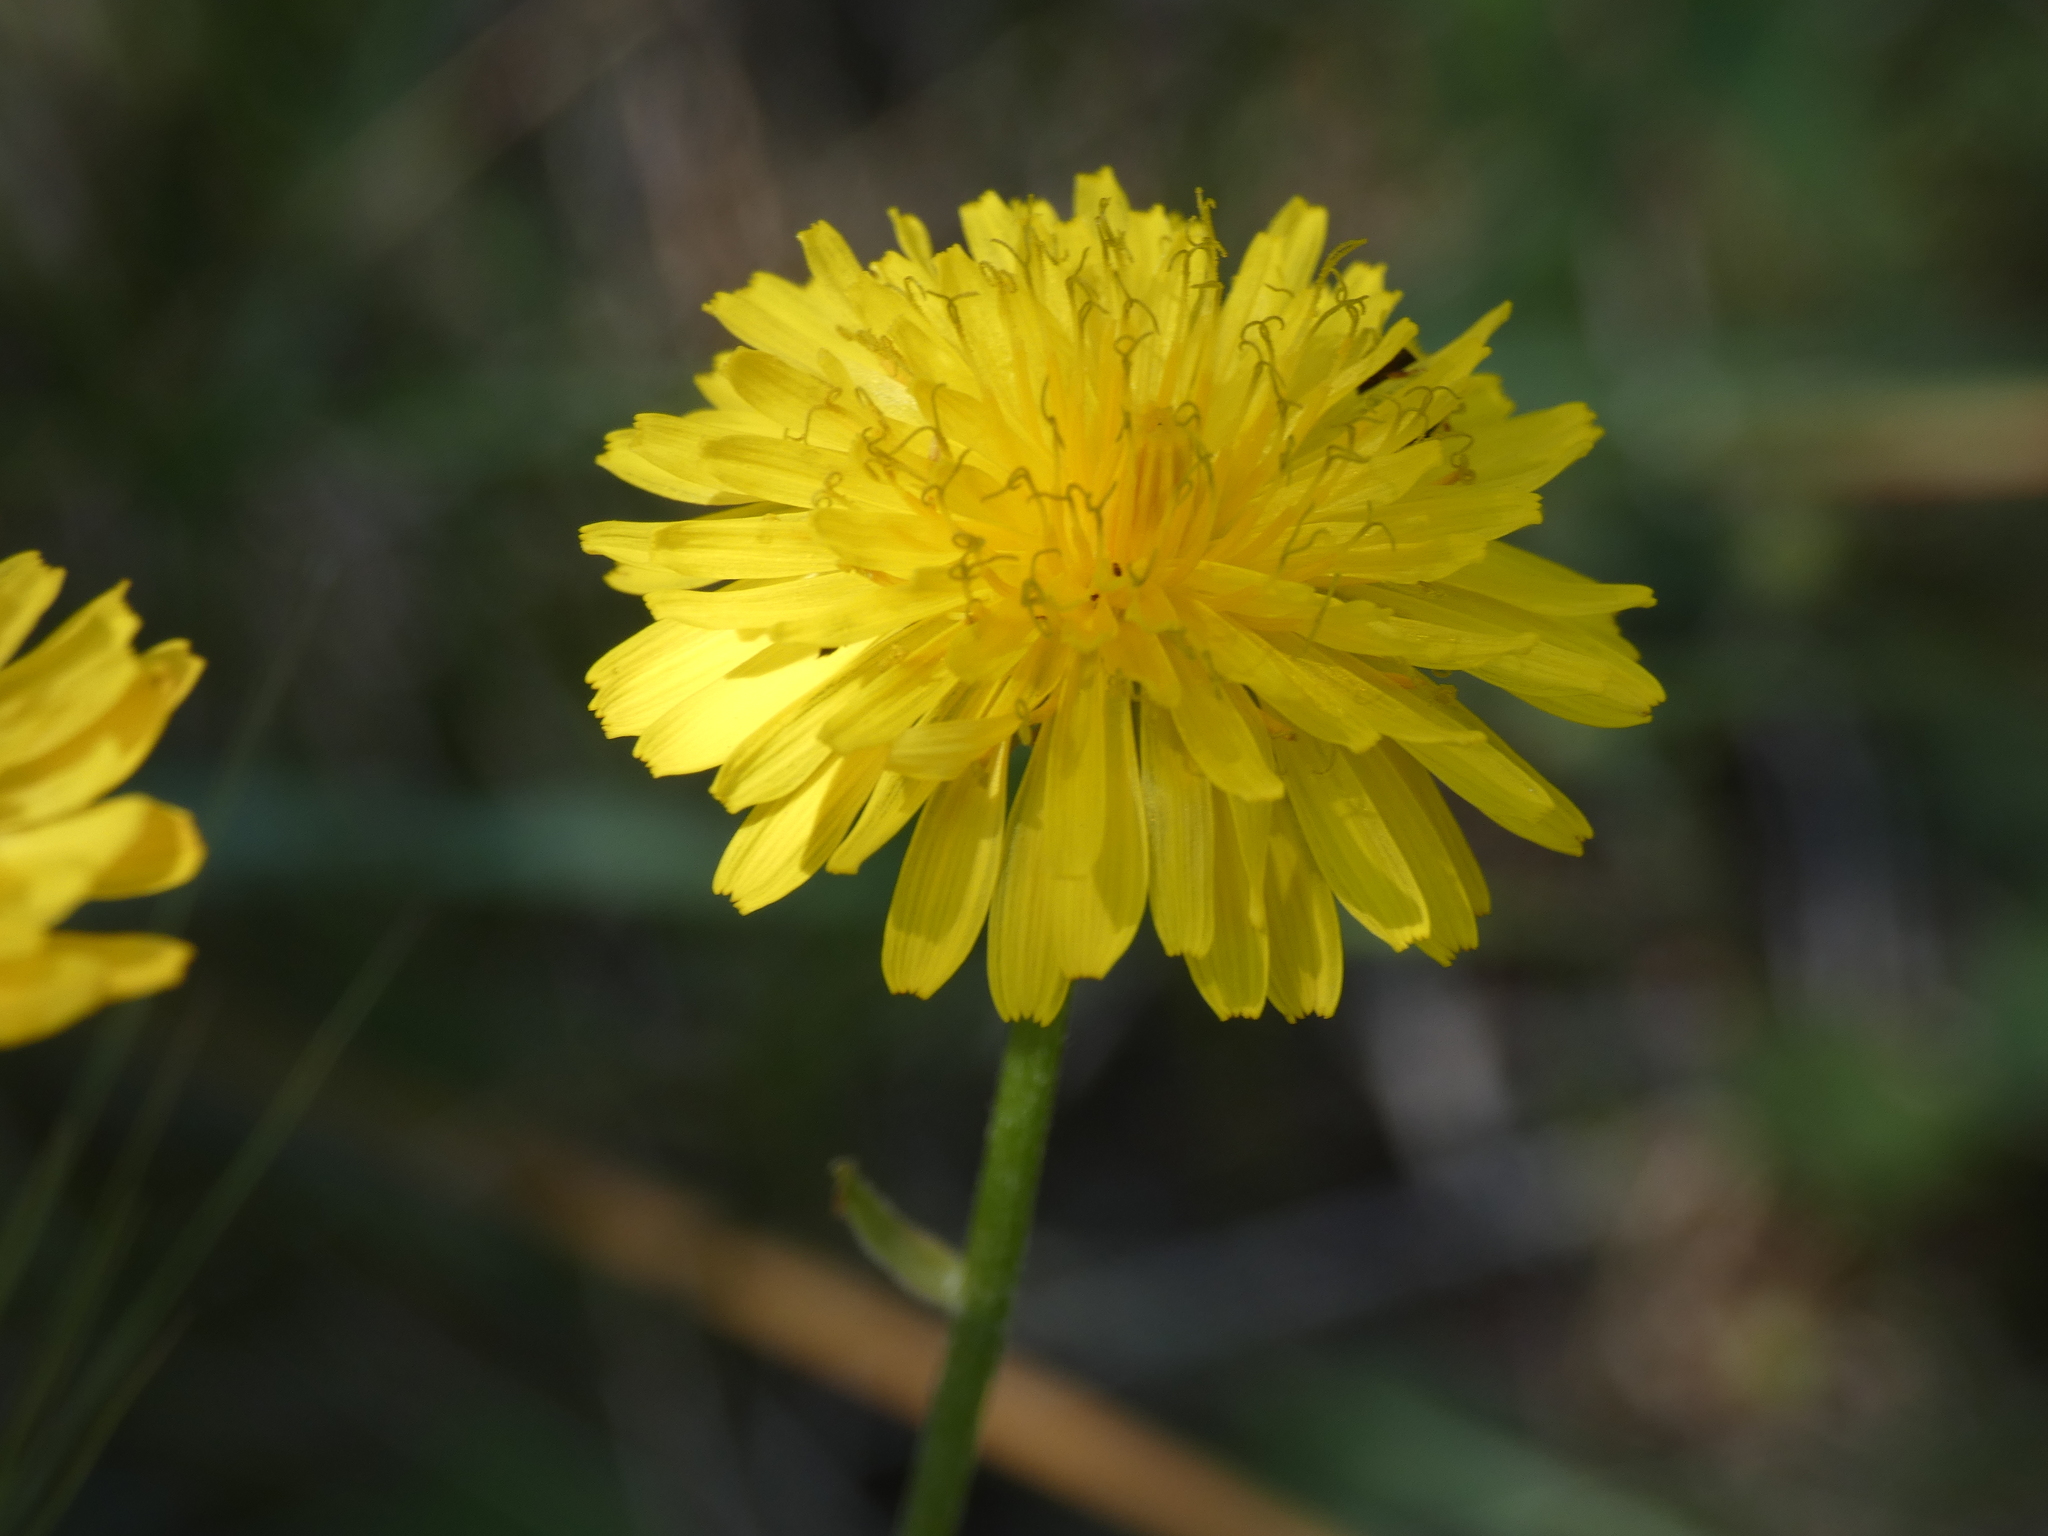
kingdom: Plantae
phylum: Tracheophyta
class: Magnoliopsida
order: Asterales
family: Asteraceae
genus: Crepis
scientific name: Crepis bursifolia
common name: Italian hawksbeard
